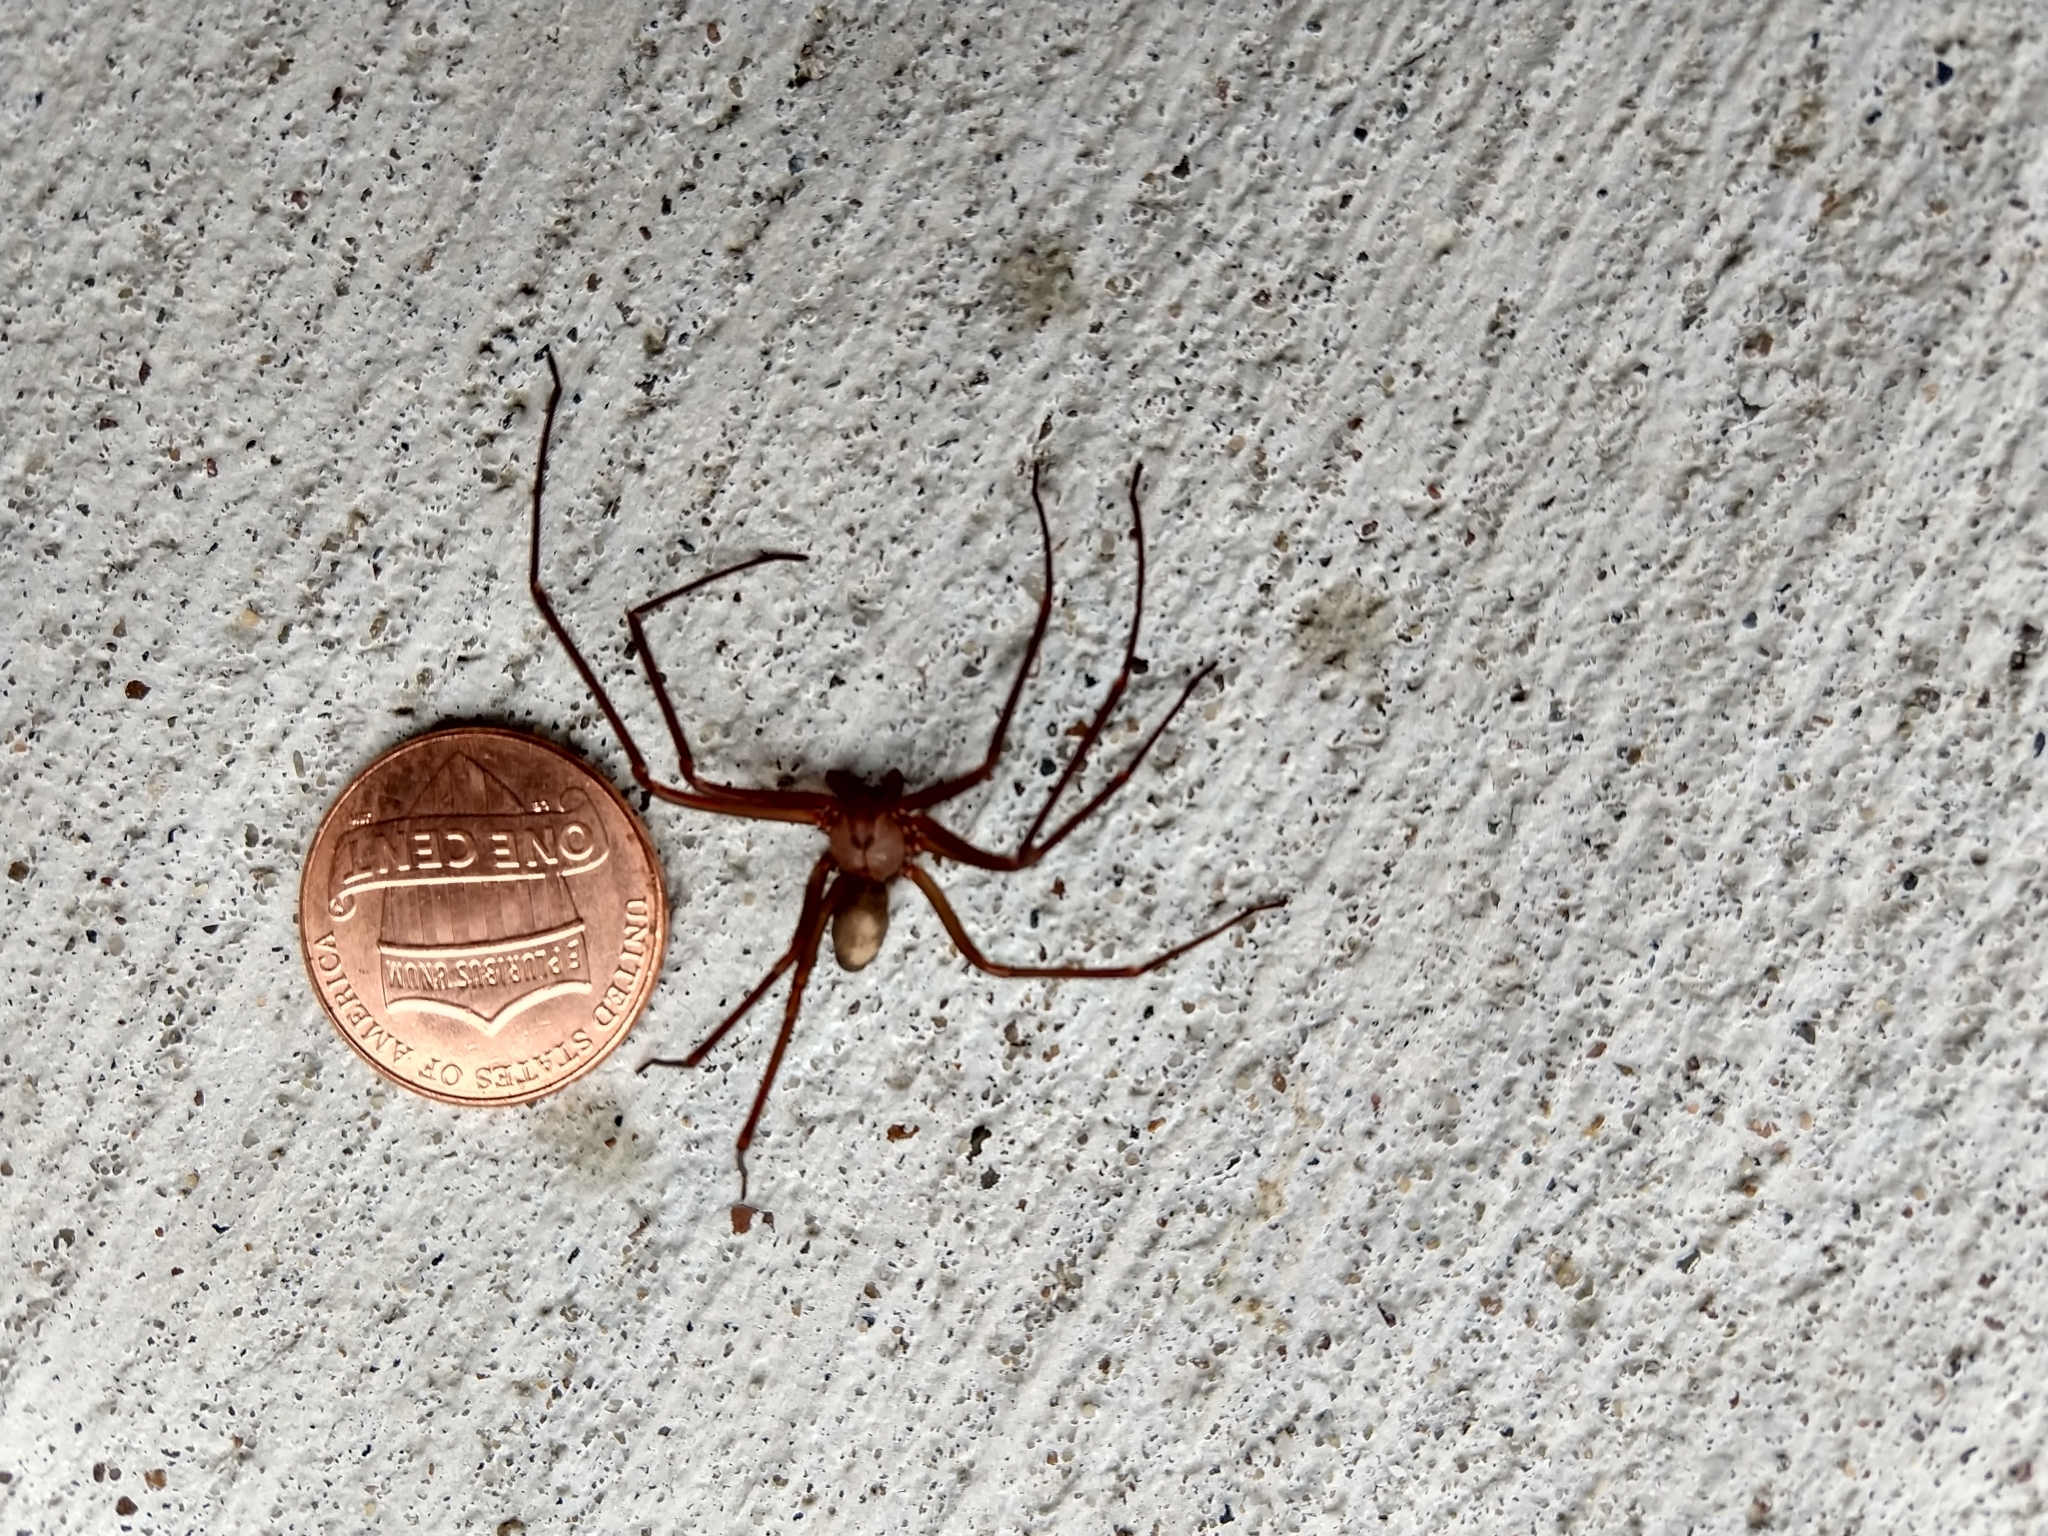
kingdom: Animalia
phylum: Arthropoda
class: Arachnida
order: Araneae
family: Sicariidae
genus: Loxosceles
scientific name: Loxosceles reclusa
